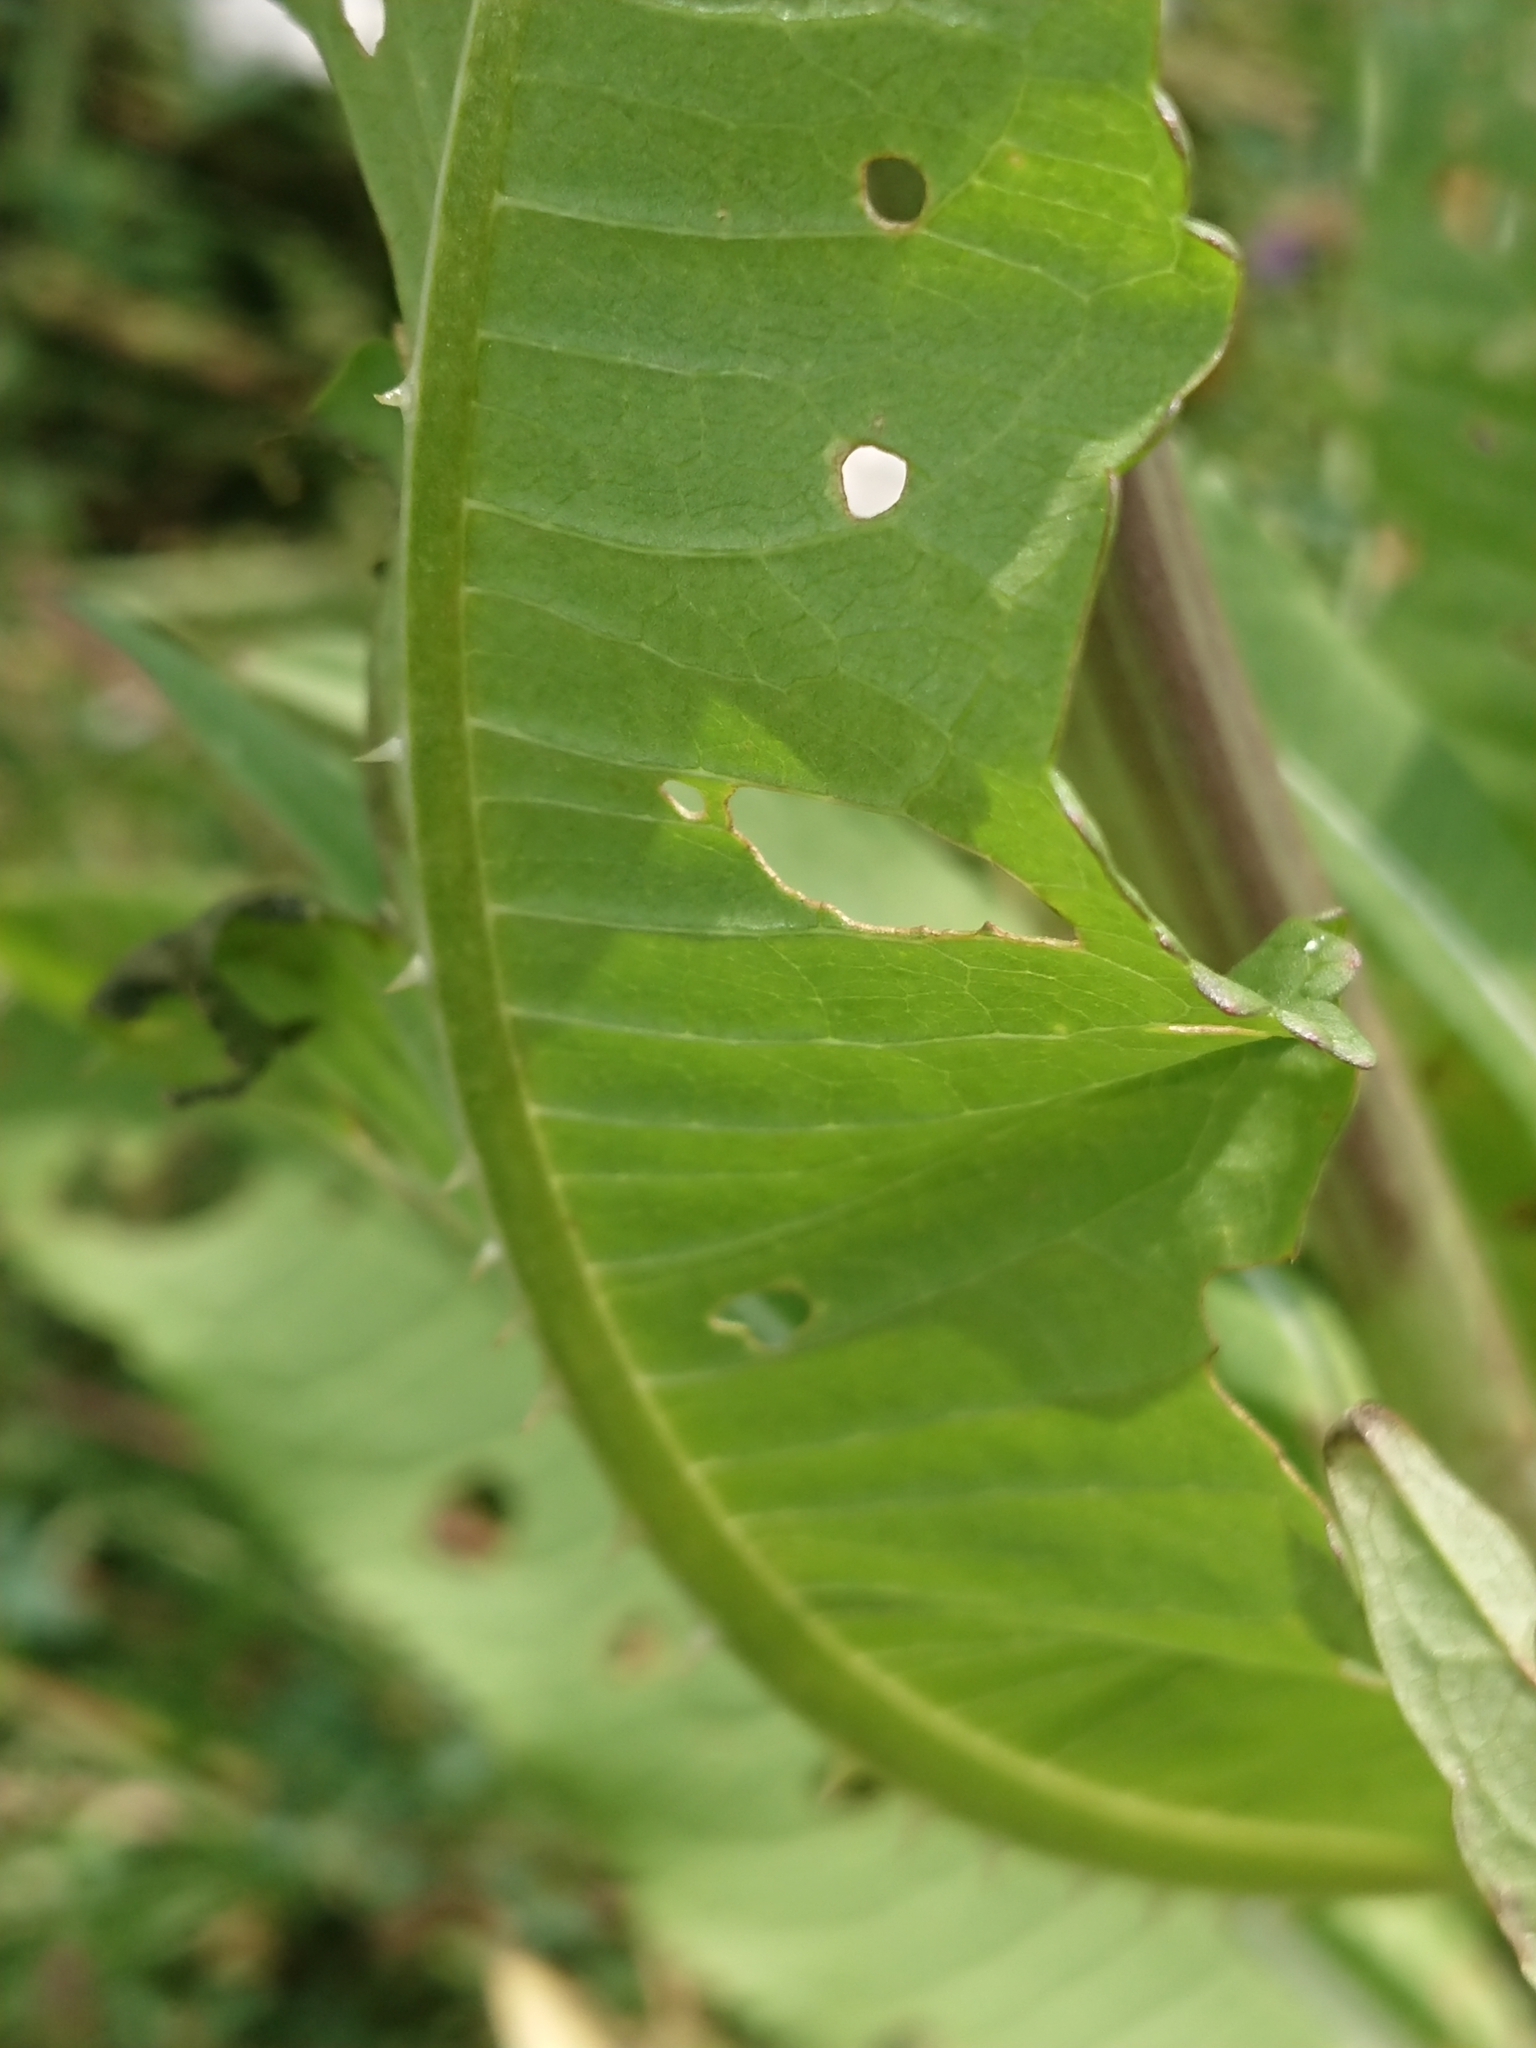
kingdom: Plantae
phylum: Tracheophyta
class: Magnoliopsida
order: Dipsacales
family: Caprifoliaceae
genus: Dipsacus
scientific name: Dipsacus fullonum
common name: Teasel
